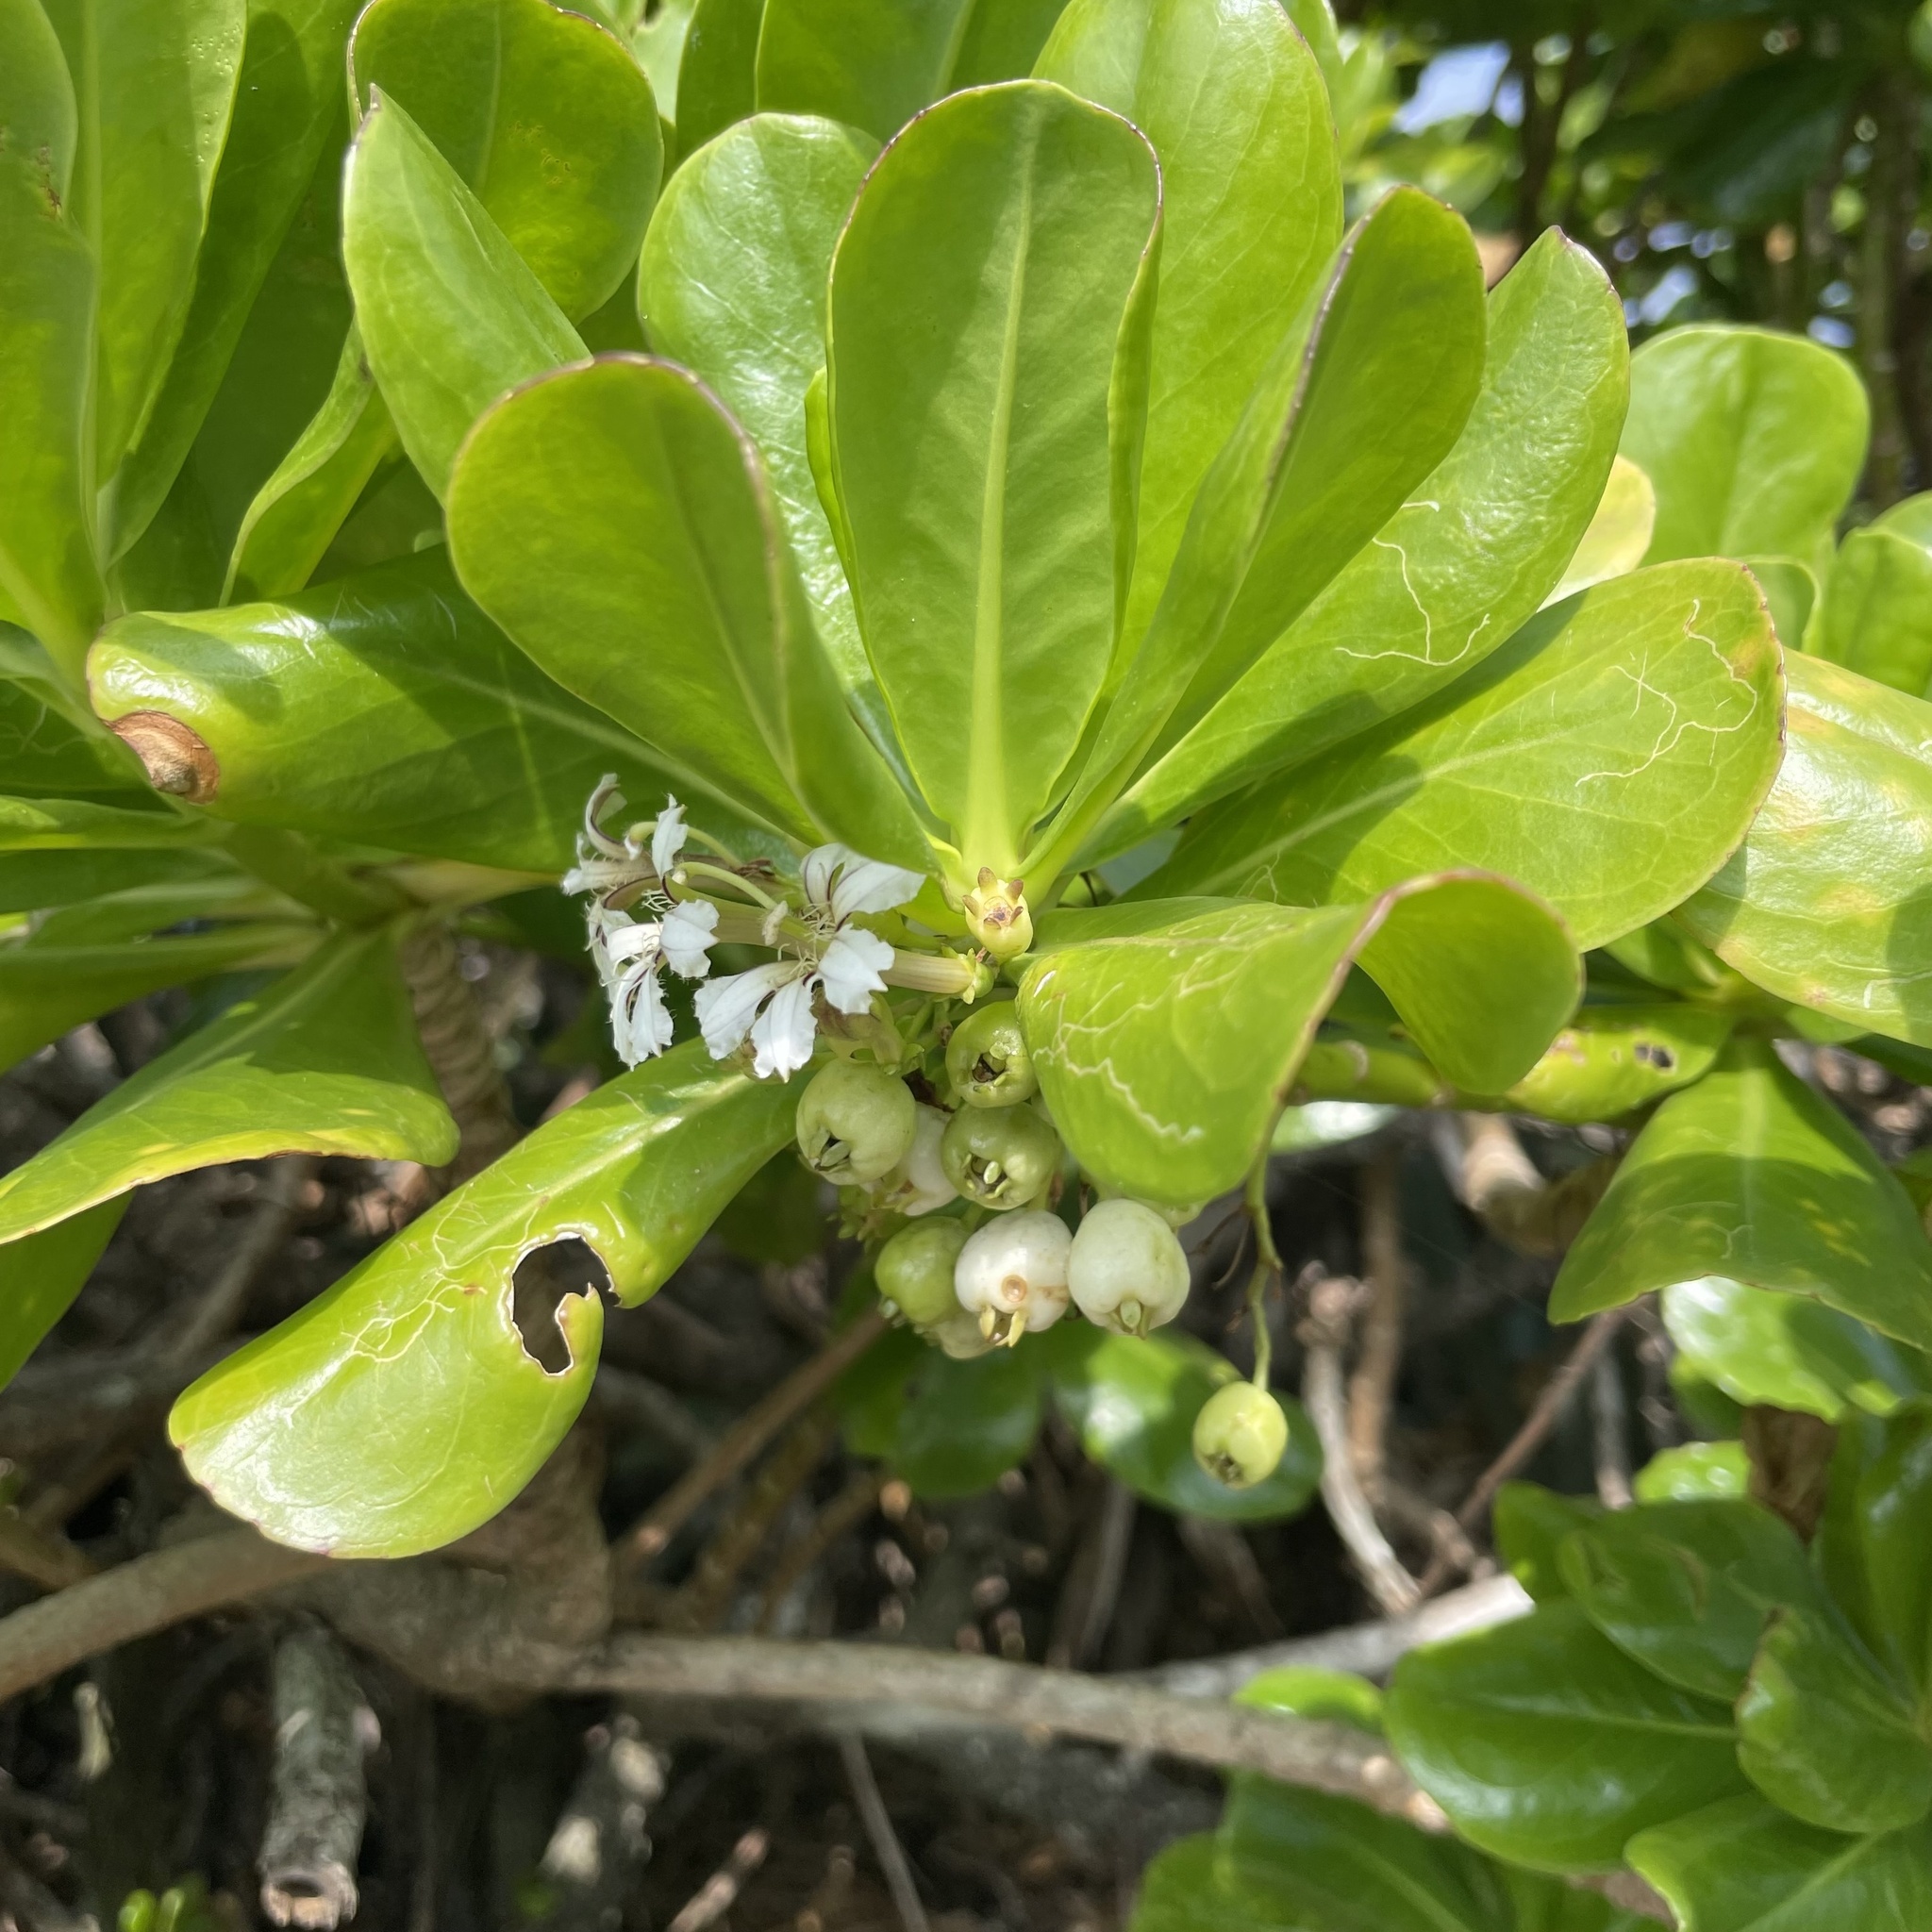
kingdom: Plantae
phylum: Tracheophyta
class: Magnoliopsida
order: Asterales
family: Goodeniaceae
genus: Scaevola
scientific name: Scaevola taccada
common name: Sea lettucetree
